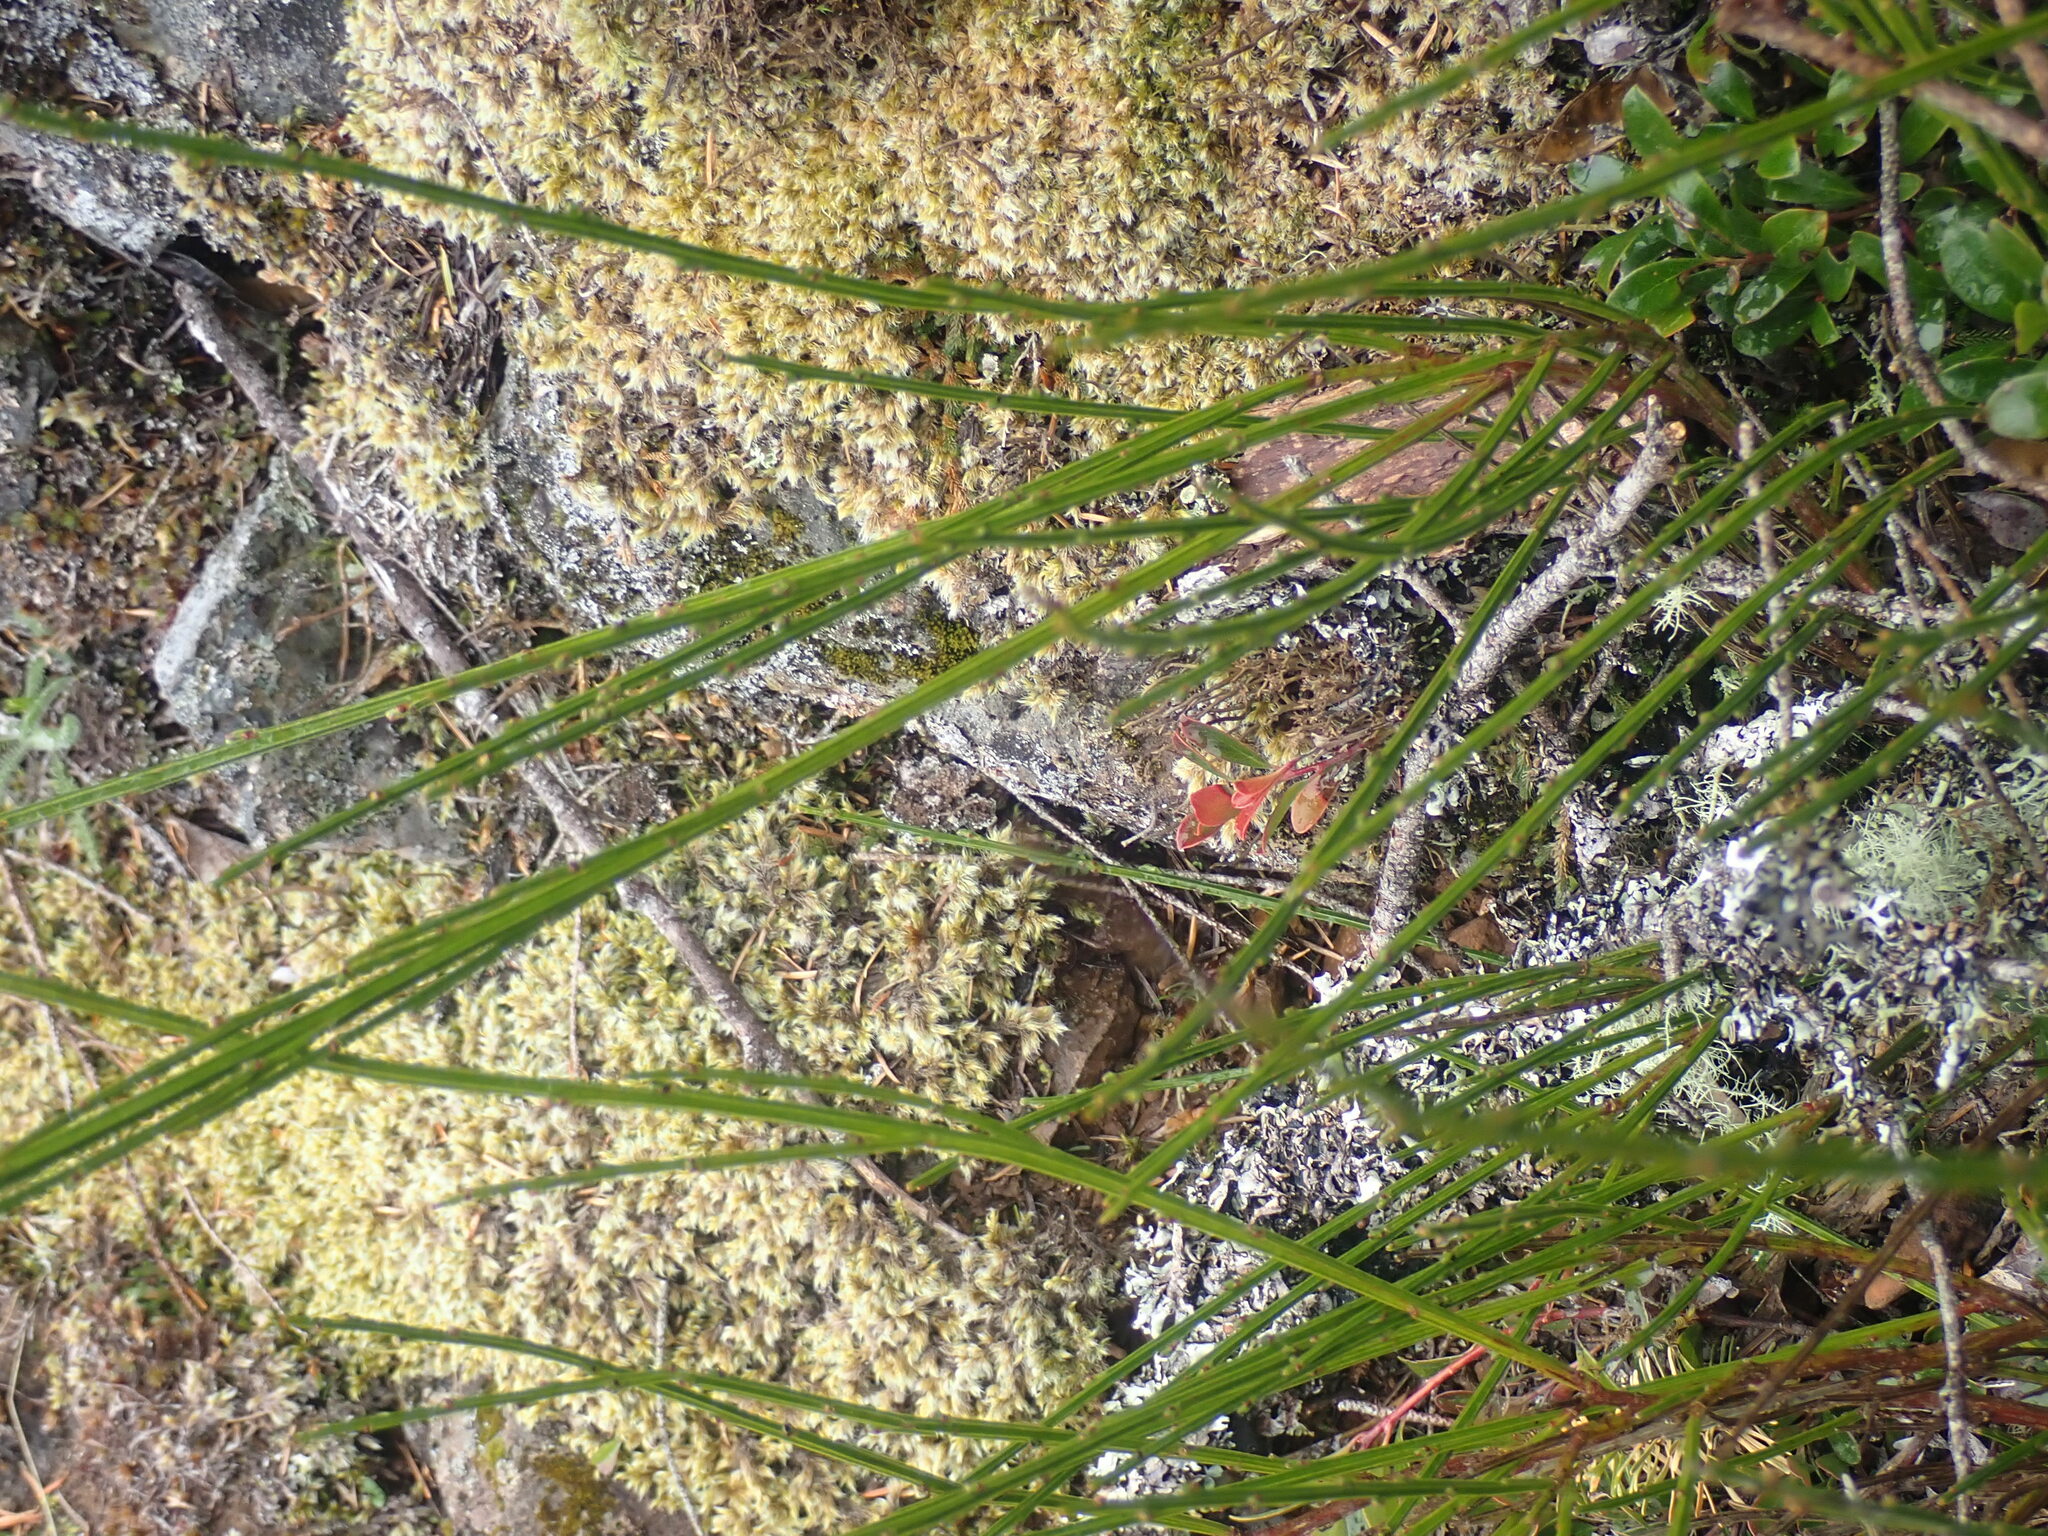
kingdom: Plantae
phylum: Tracheophyta
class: Magnoliopsida
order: Fabales
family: Fabaceae
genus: Cytisus
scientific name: Cytisus scoparius
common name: Scotch broom
